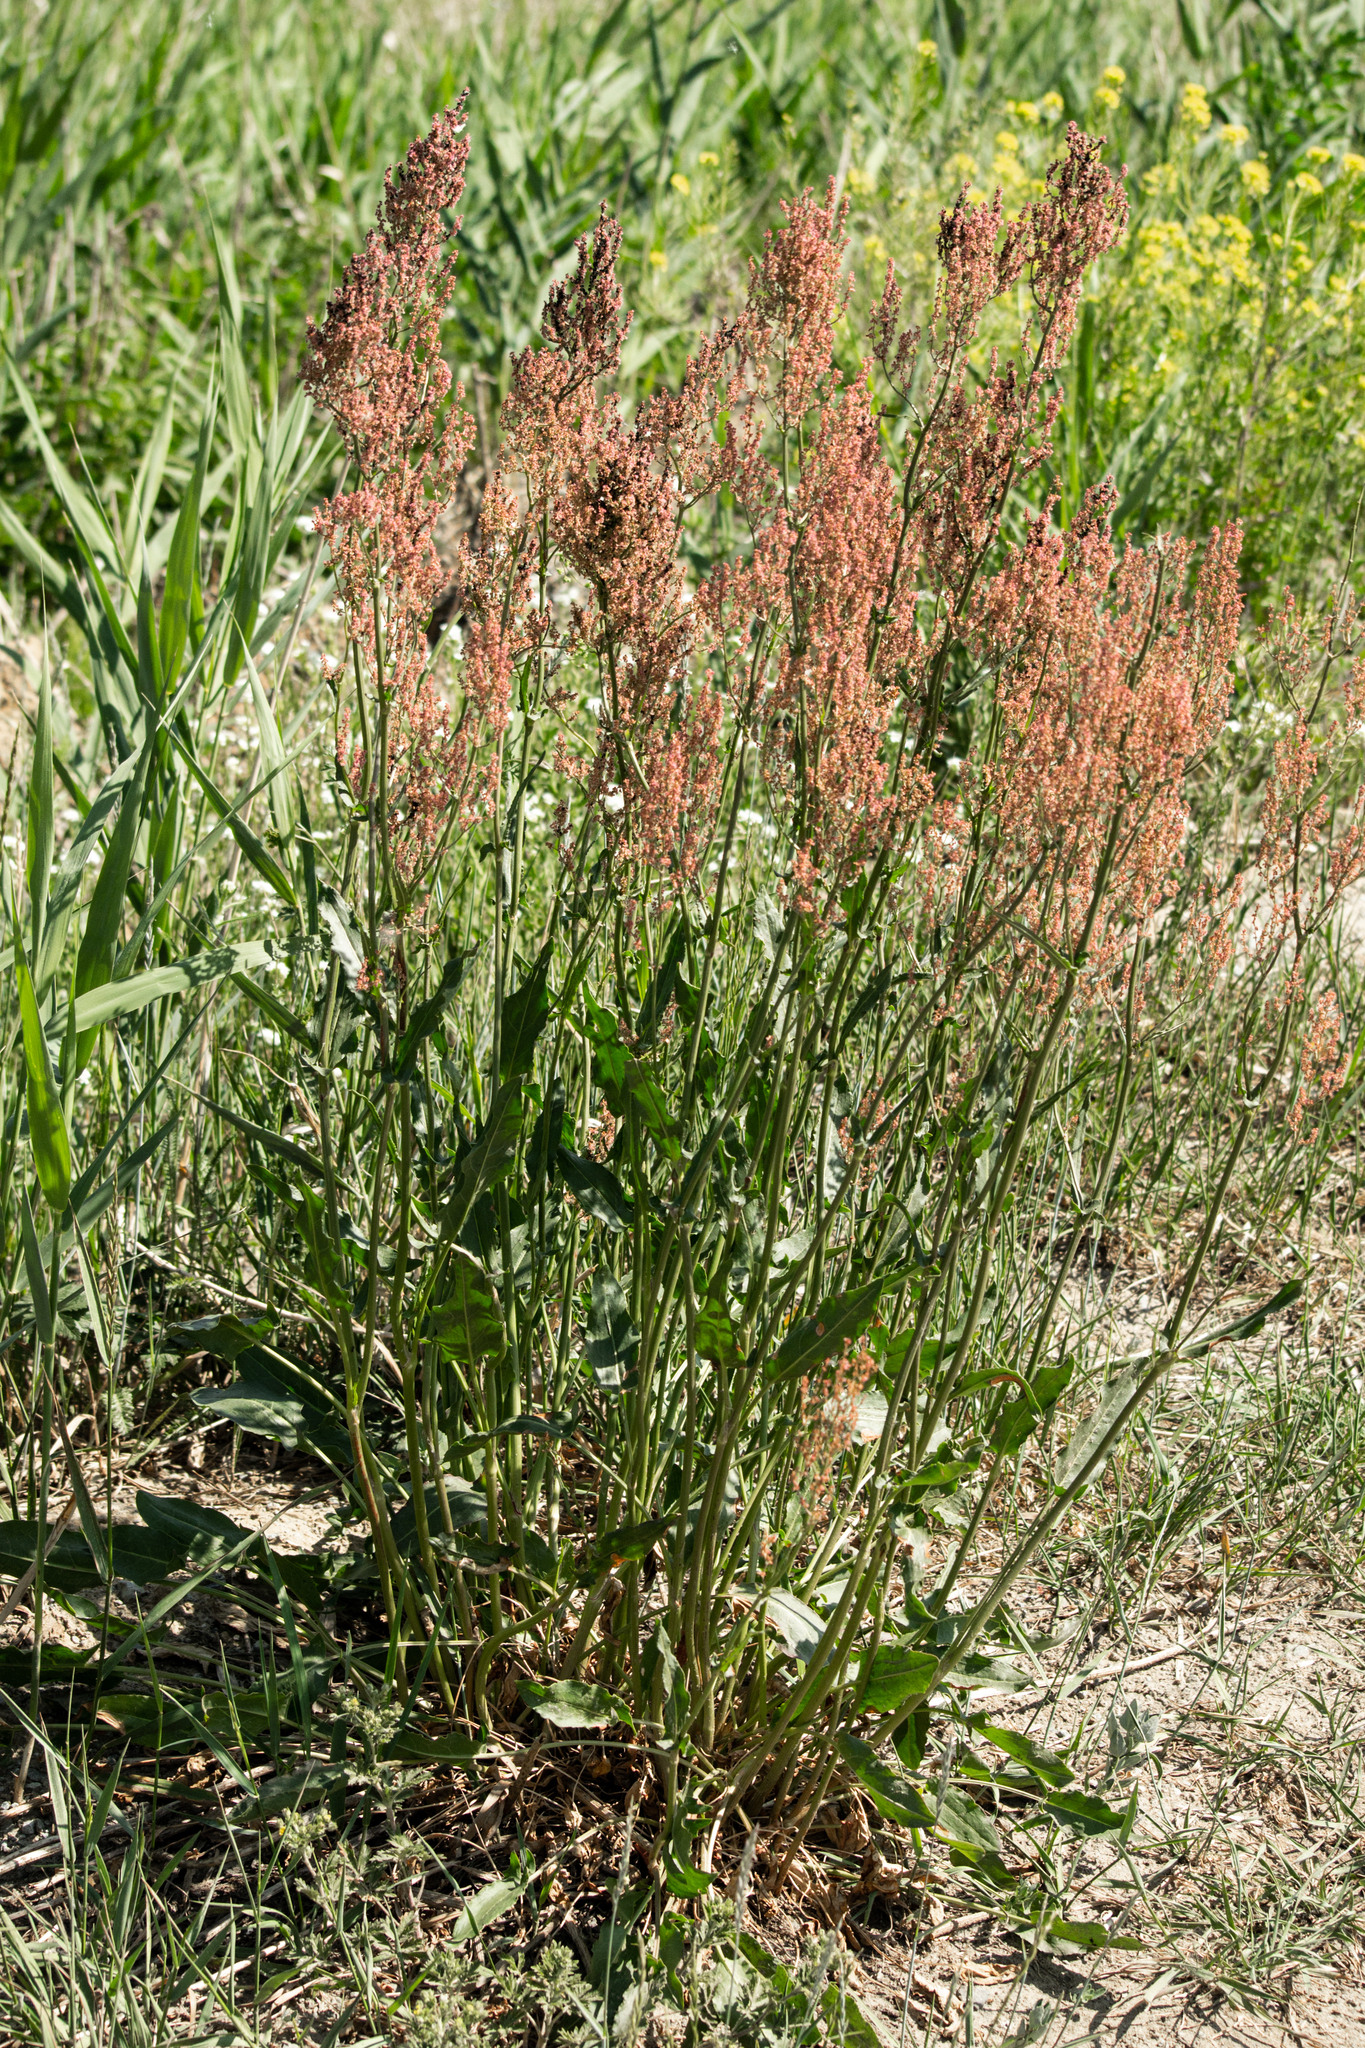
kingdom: Plantae
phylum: Tracheophyta
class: Magnoliopsida
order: Caryophyllales
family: Polygonaceae
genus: Rumex
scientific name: Rumex thyrsiflorus
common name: Garden sorrel
